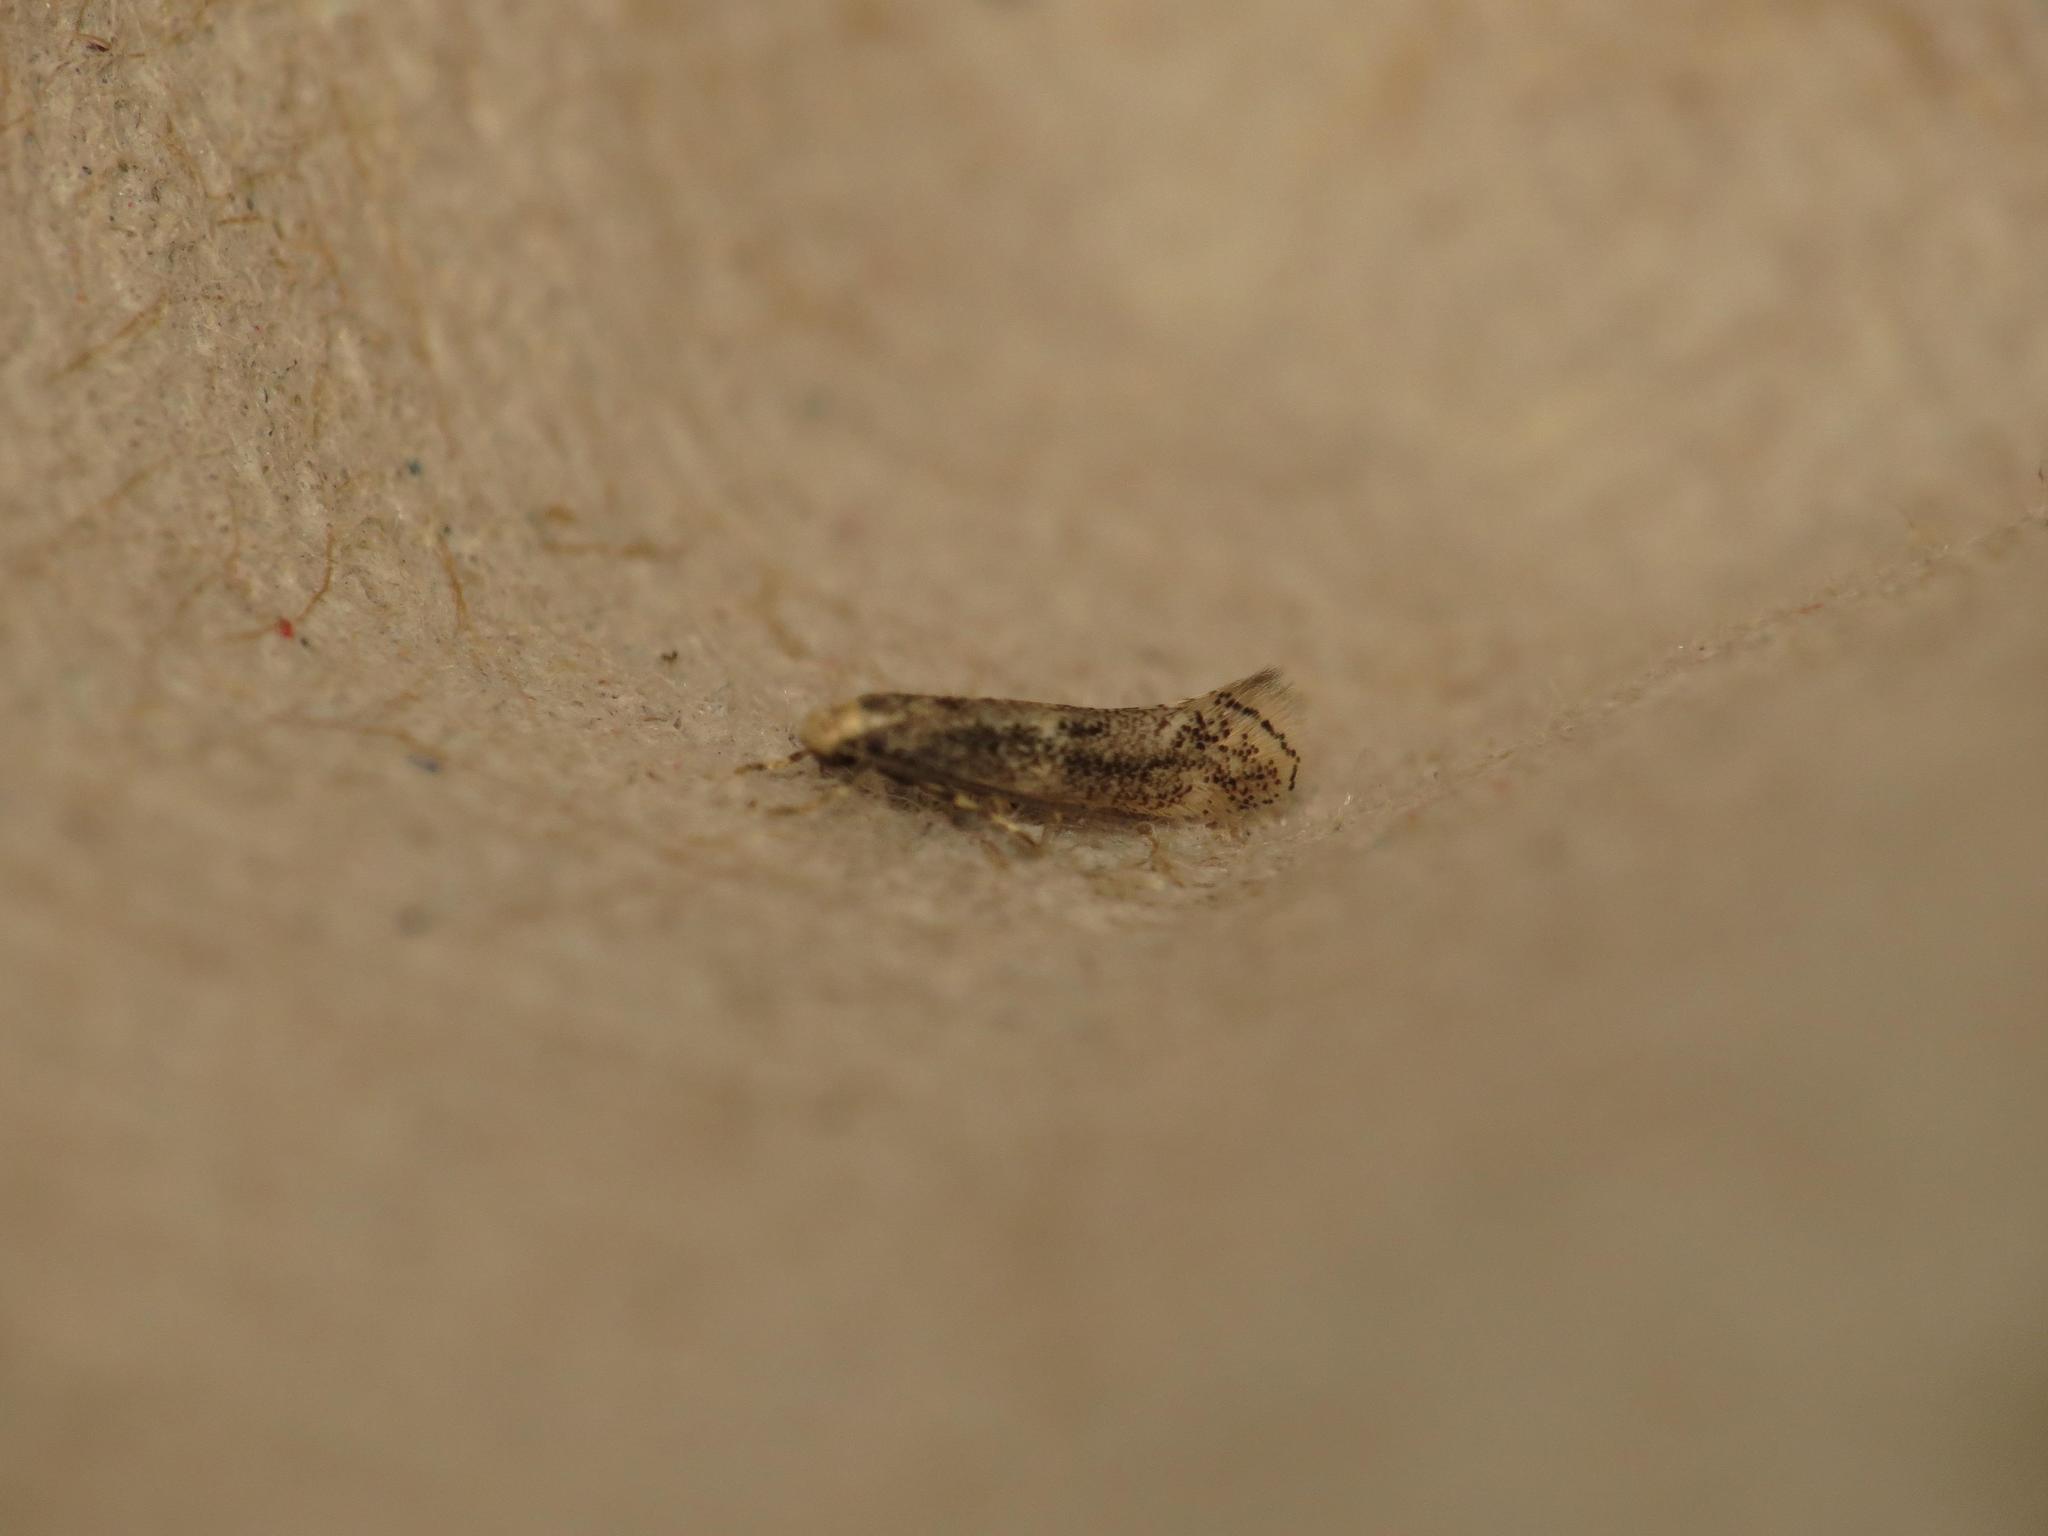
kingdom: Animalia
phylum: Arthropoda
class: Insecta
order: Lepidoptera
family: Elachistidae
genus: Elachista
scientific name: Elachista canapennella
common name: Little dwarf
